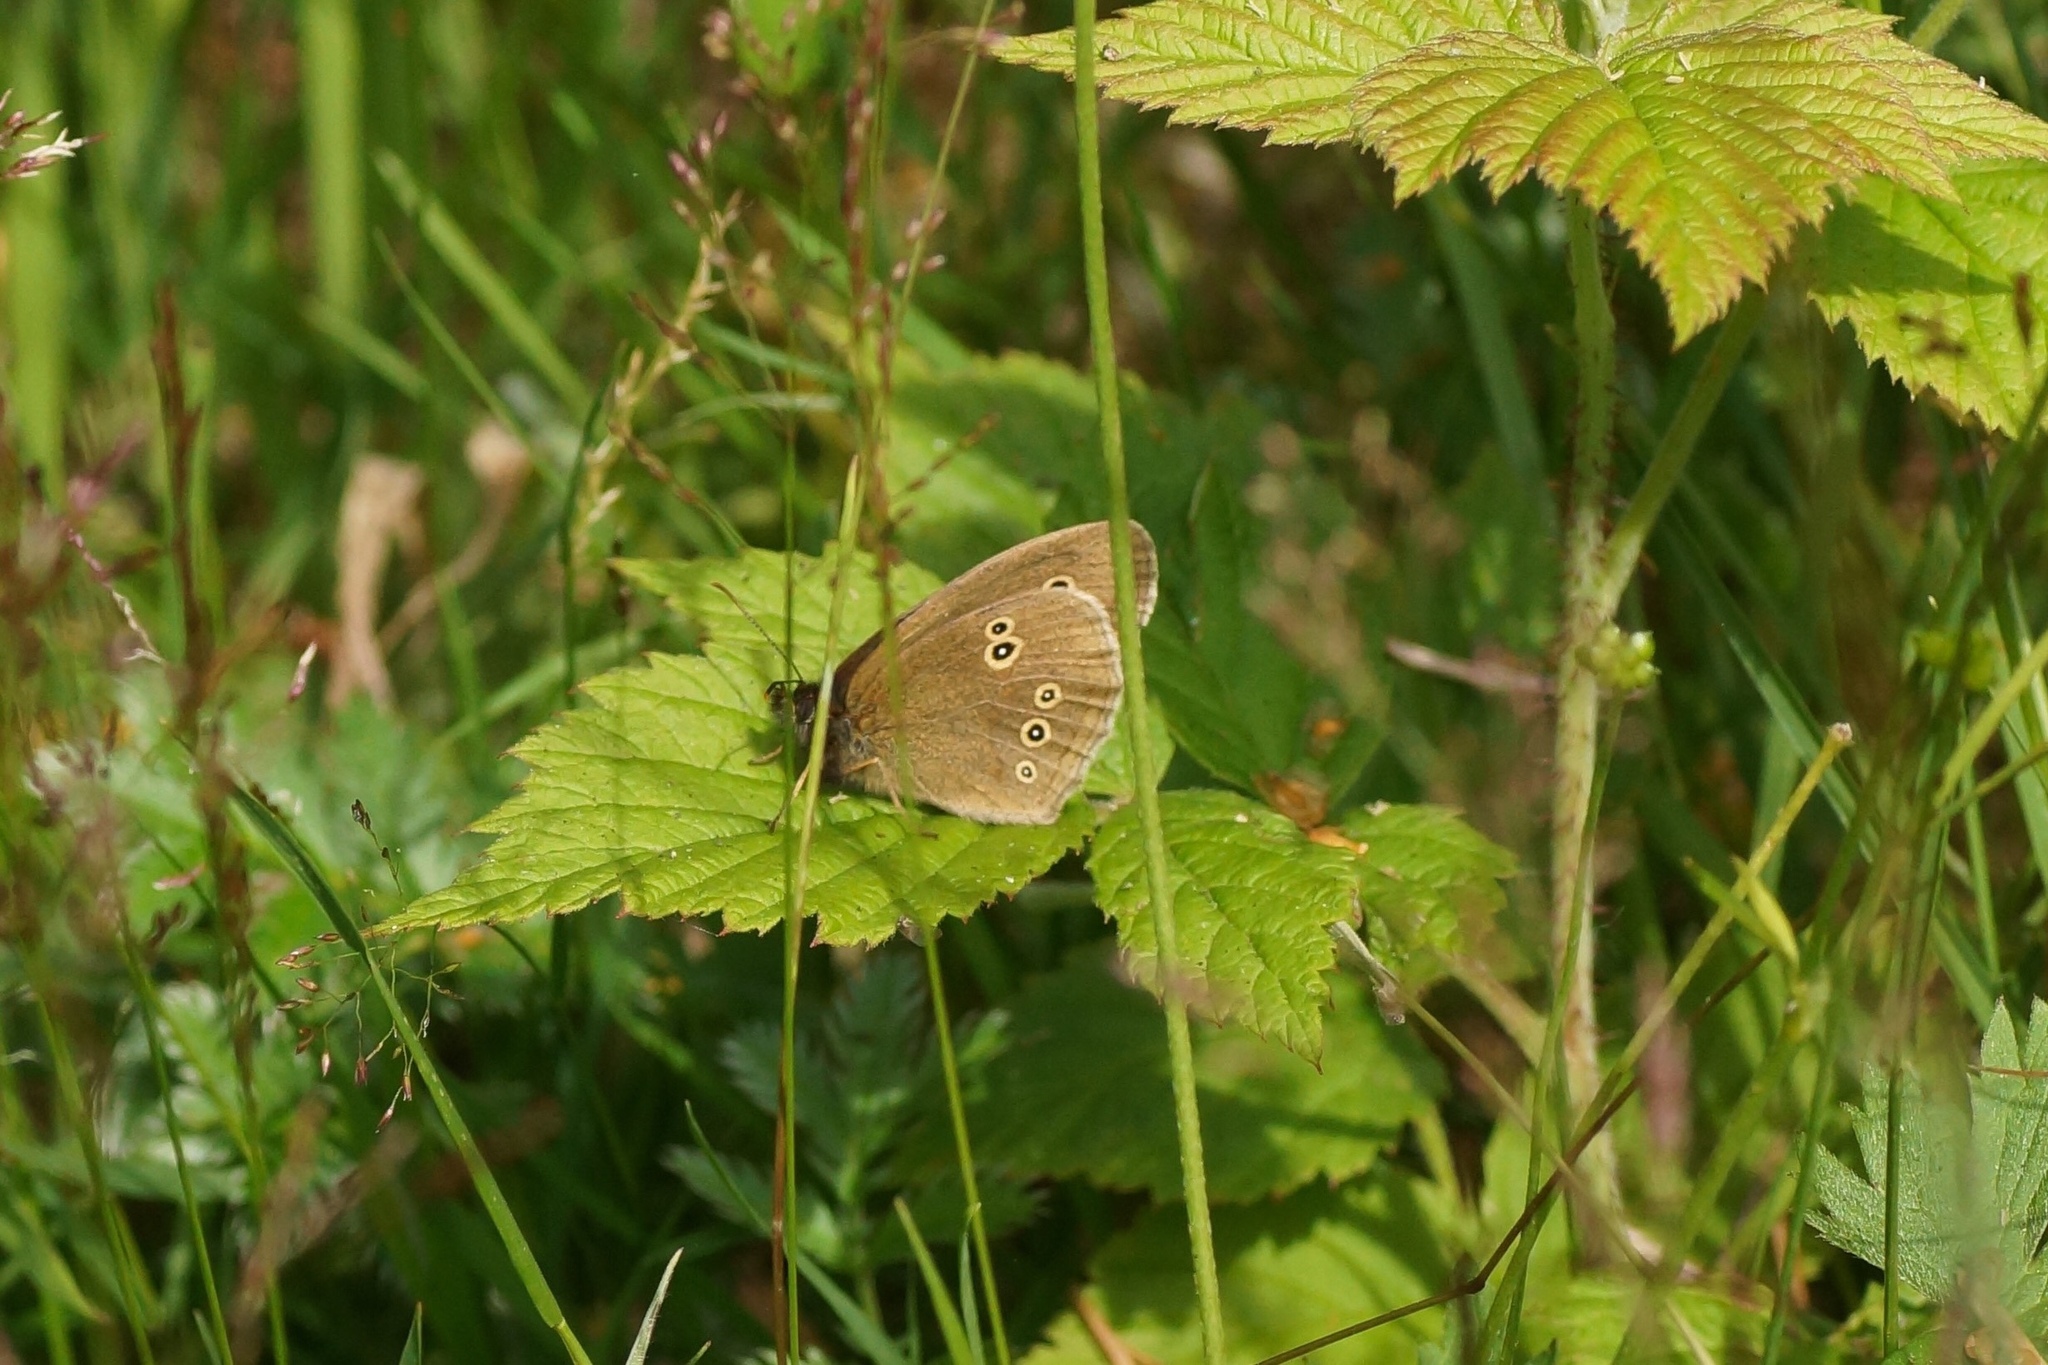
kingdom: Animalia
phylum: Arthropoda
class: Insecta
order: Lepidoptera
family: Nymphalidae
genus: Aphantopus
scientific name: Aphantopus hyperantus
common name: Ringlet
